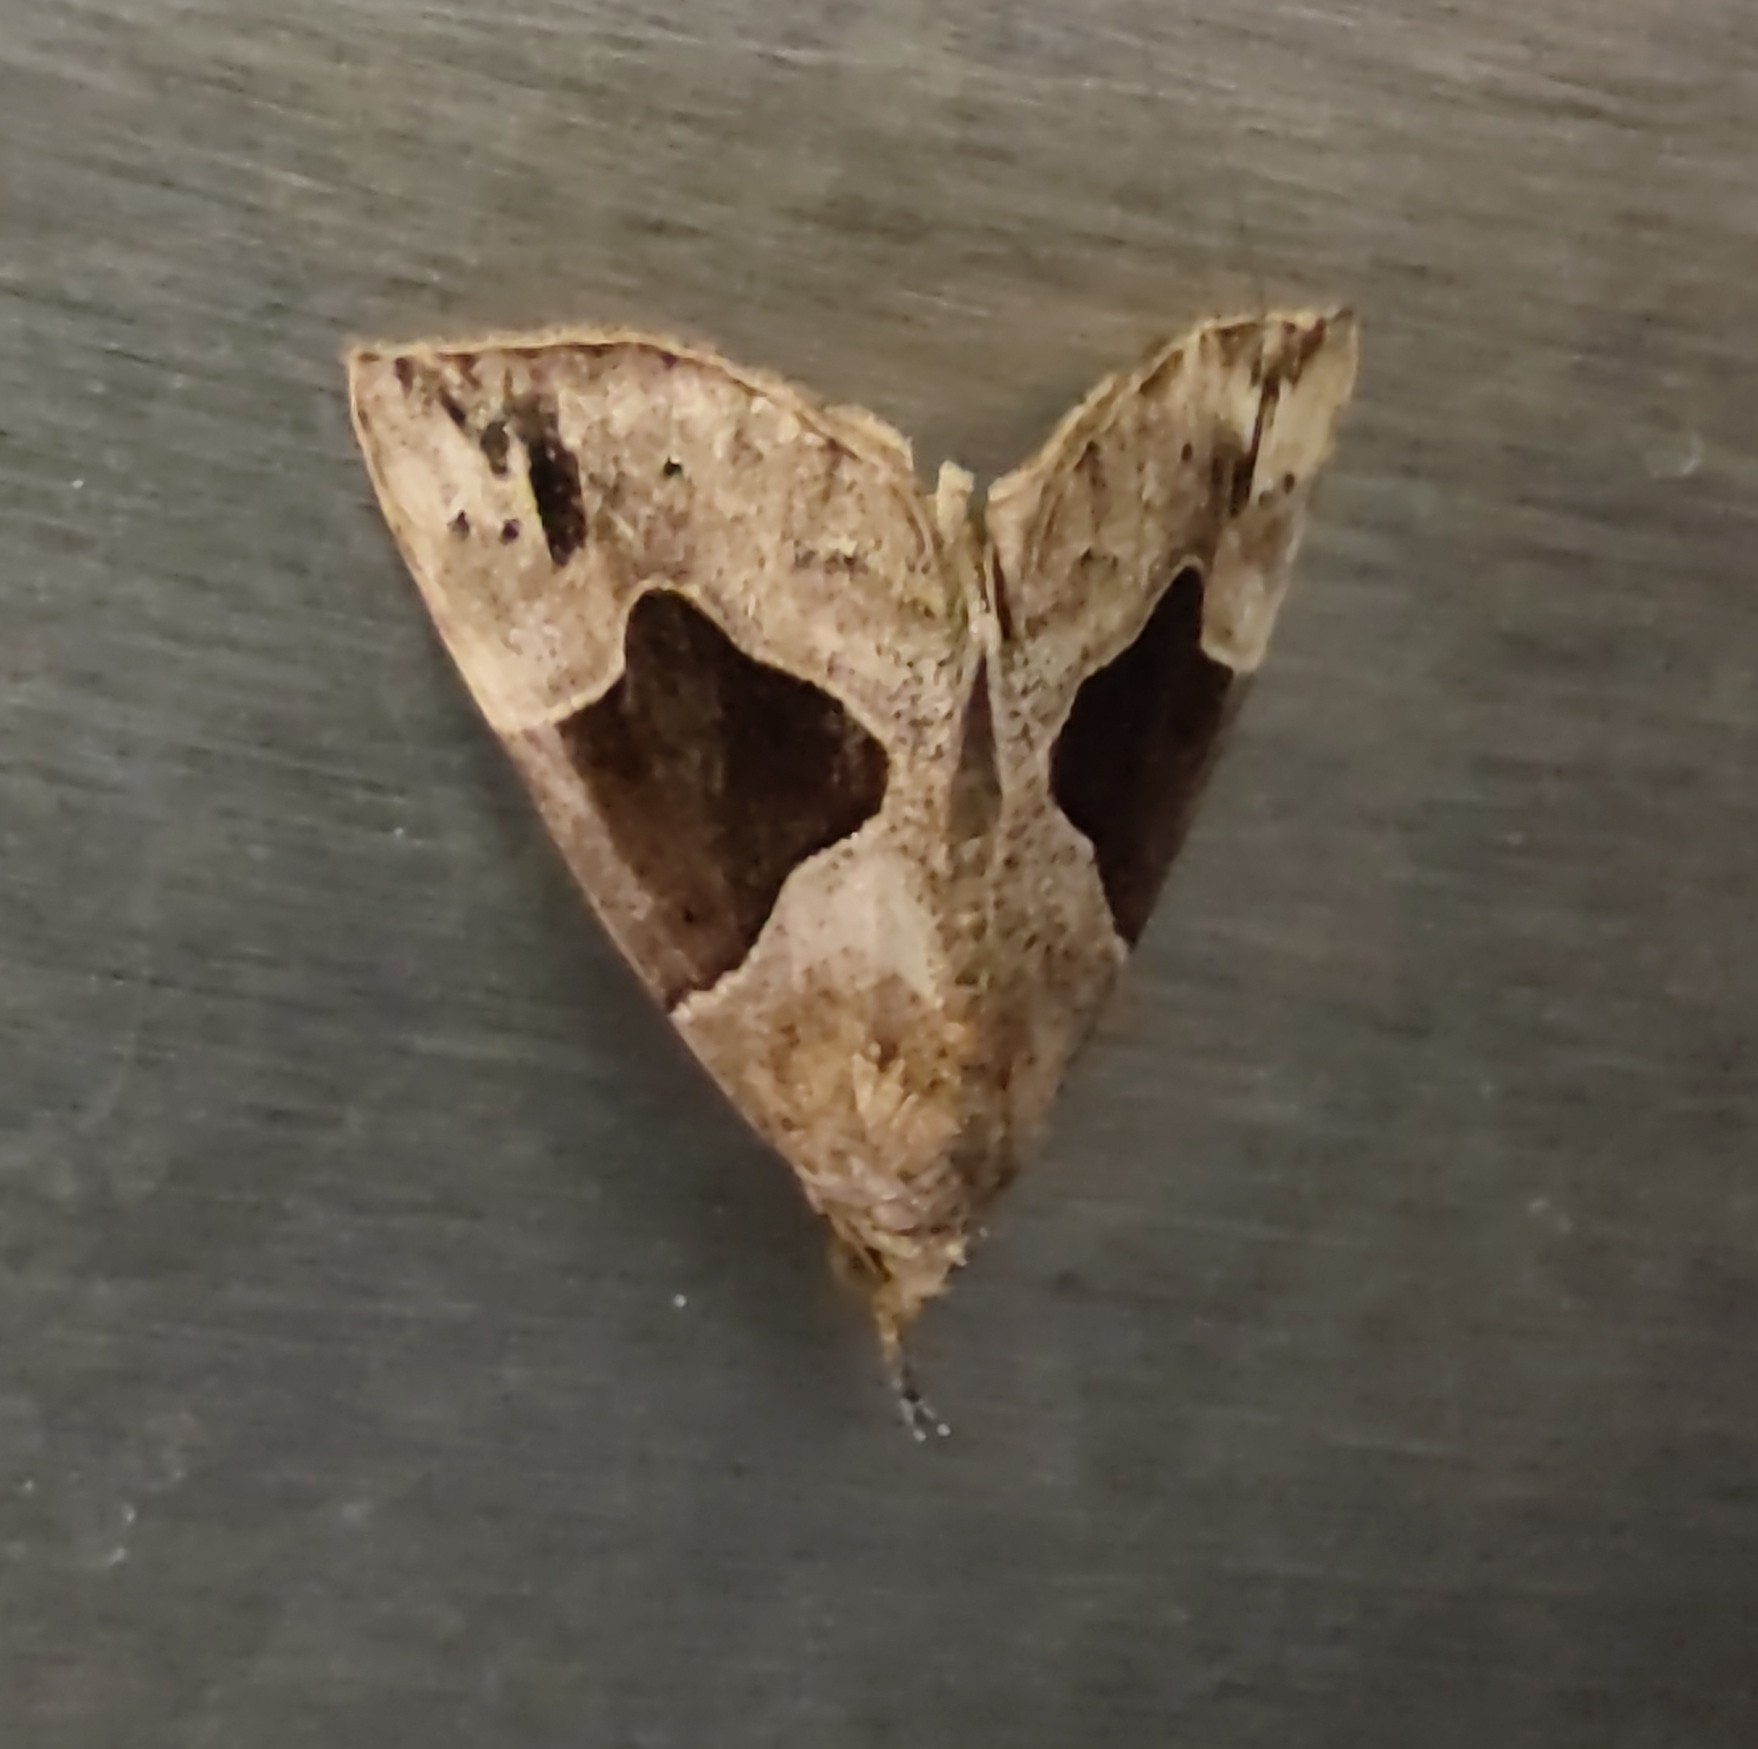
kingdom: Animalia
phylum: Arthropoda
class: Insecta
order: Lepidoptera
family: Erebidae
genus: Hypena
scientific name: Hypena manalis
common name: Flowing-line bomolocha moth
